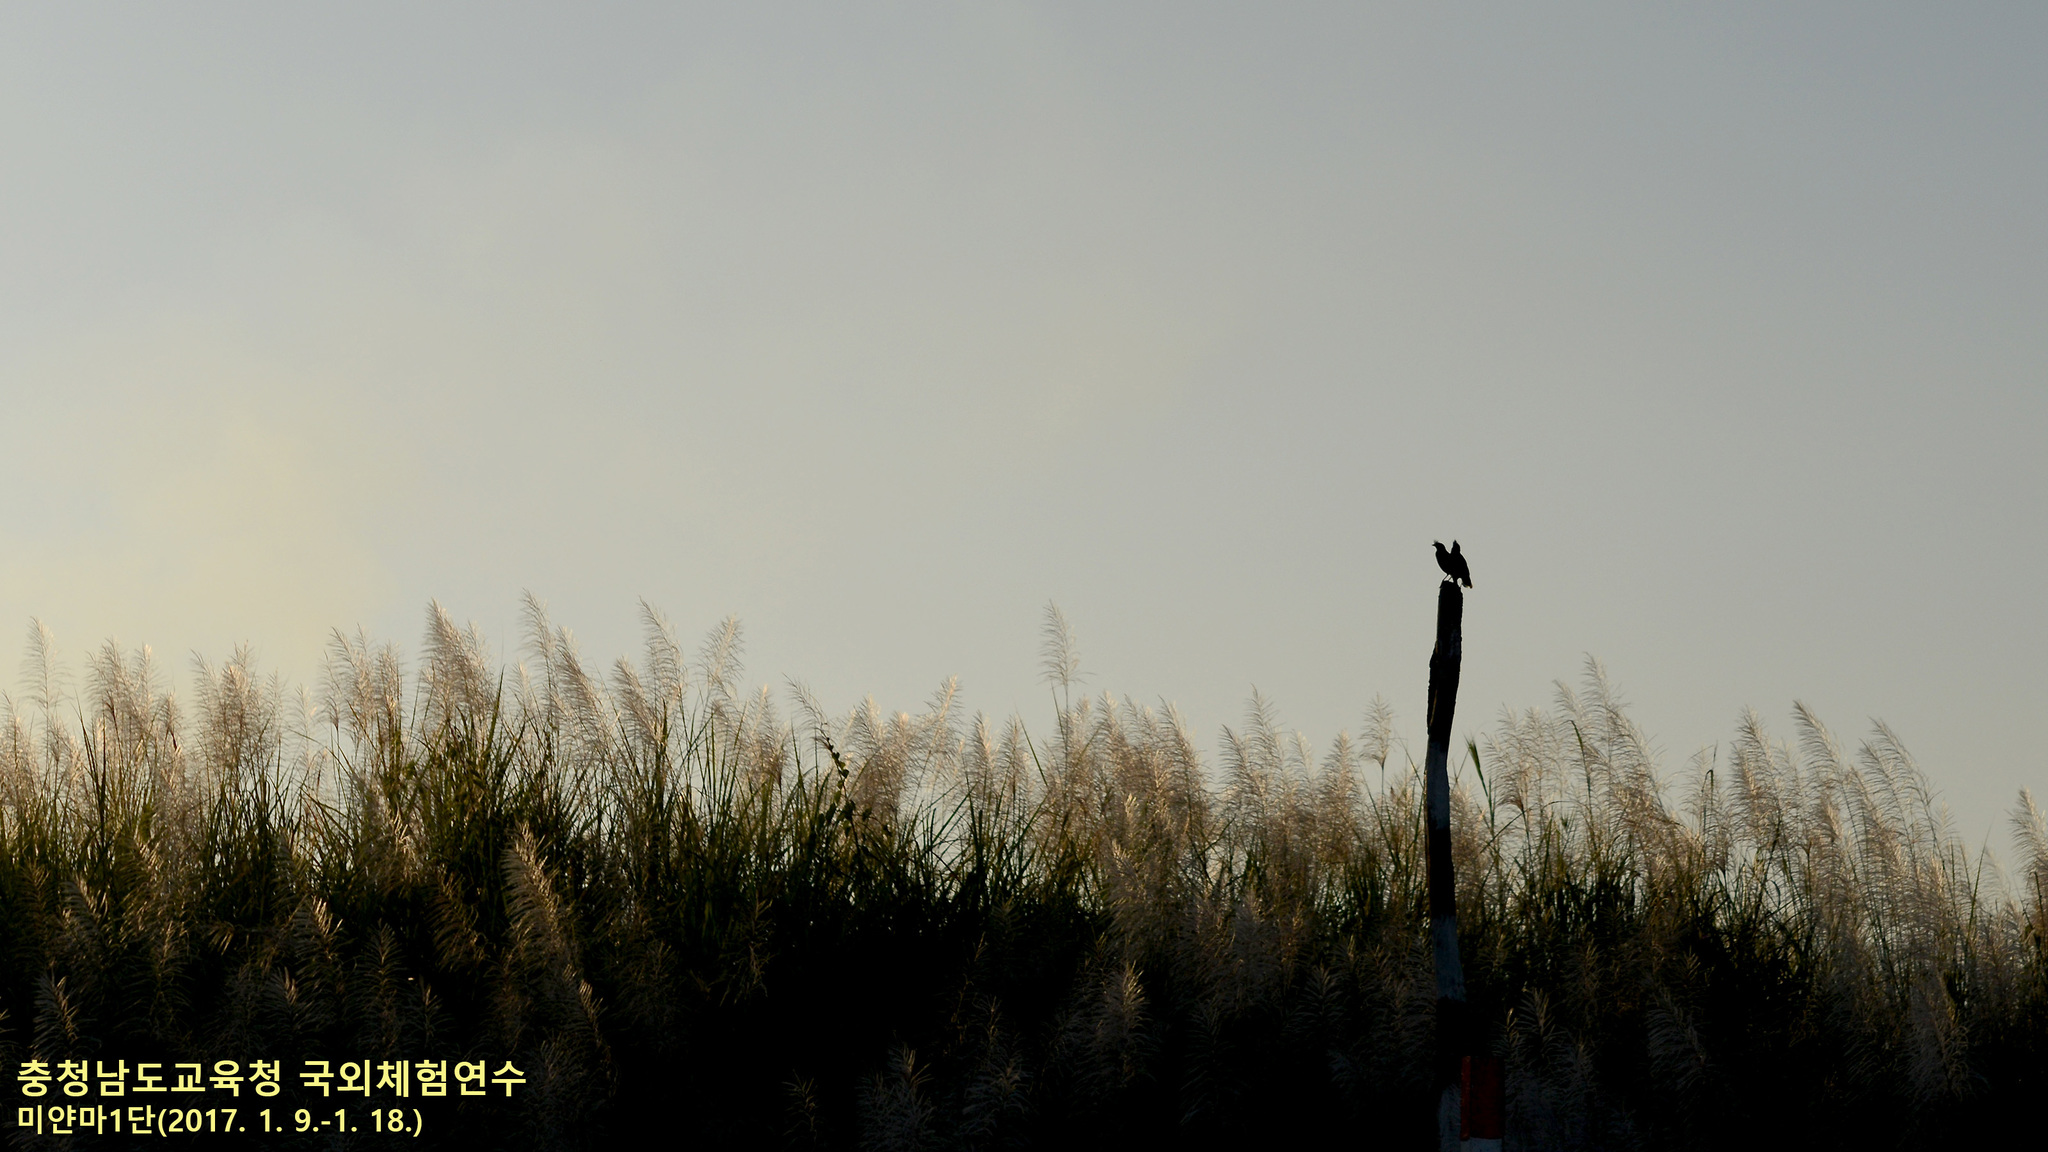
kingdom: Animalia
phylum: Chordata
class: Aves
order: Passeriformes
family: Sturnidae
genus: Acridotheres
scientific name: Acridotheres
